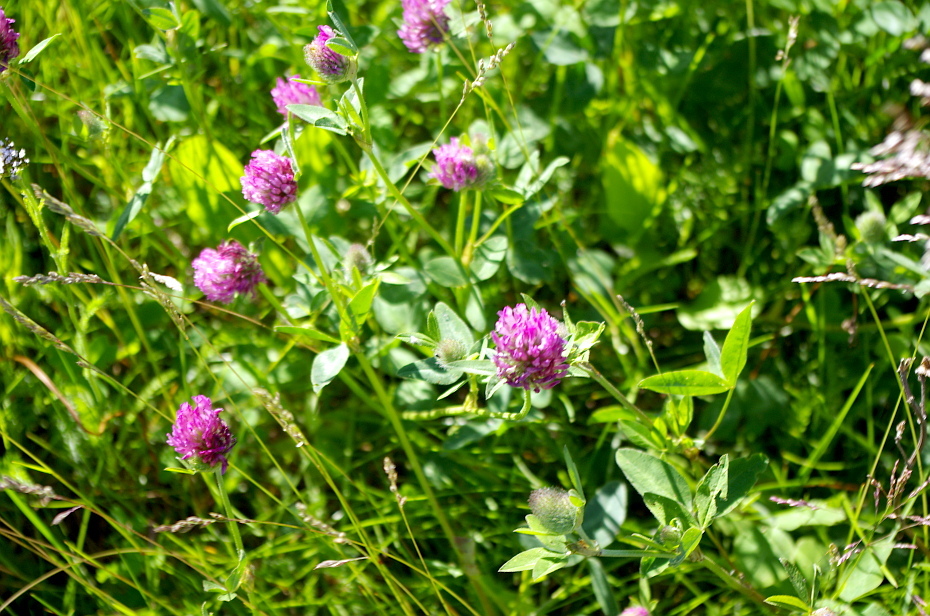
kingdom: Plantae
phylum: Tracheophyta
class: Magnoliopsida
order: Fabales
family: Fabaceae
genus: Trifolium
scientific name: Trifolium pratense
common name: Red clover
